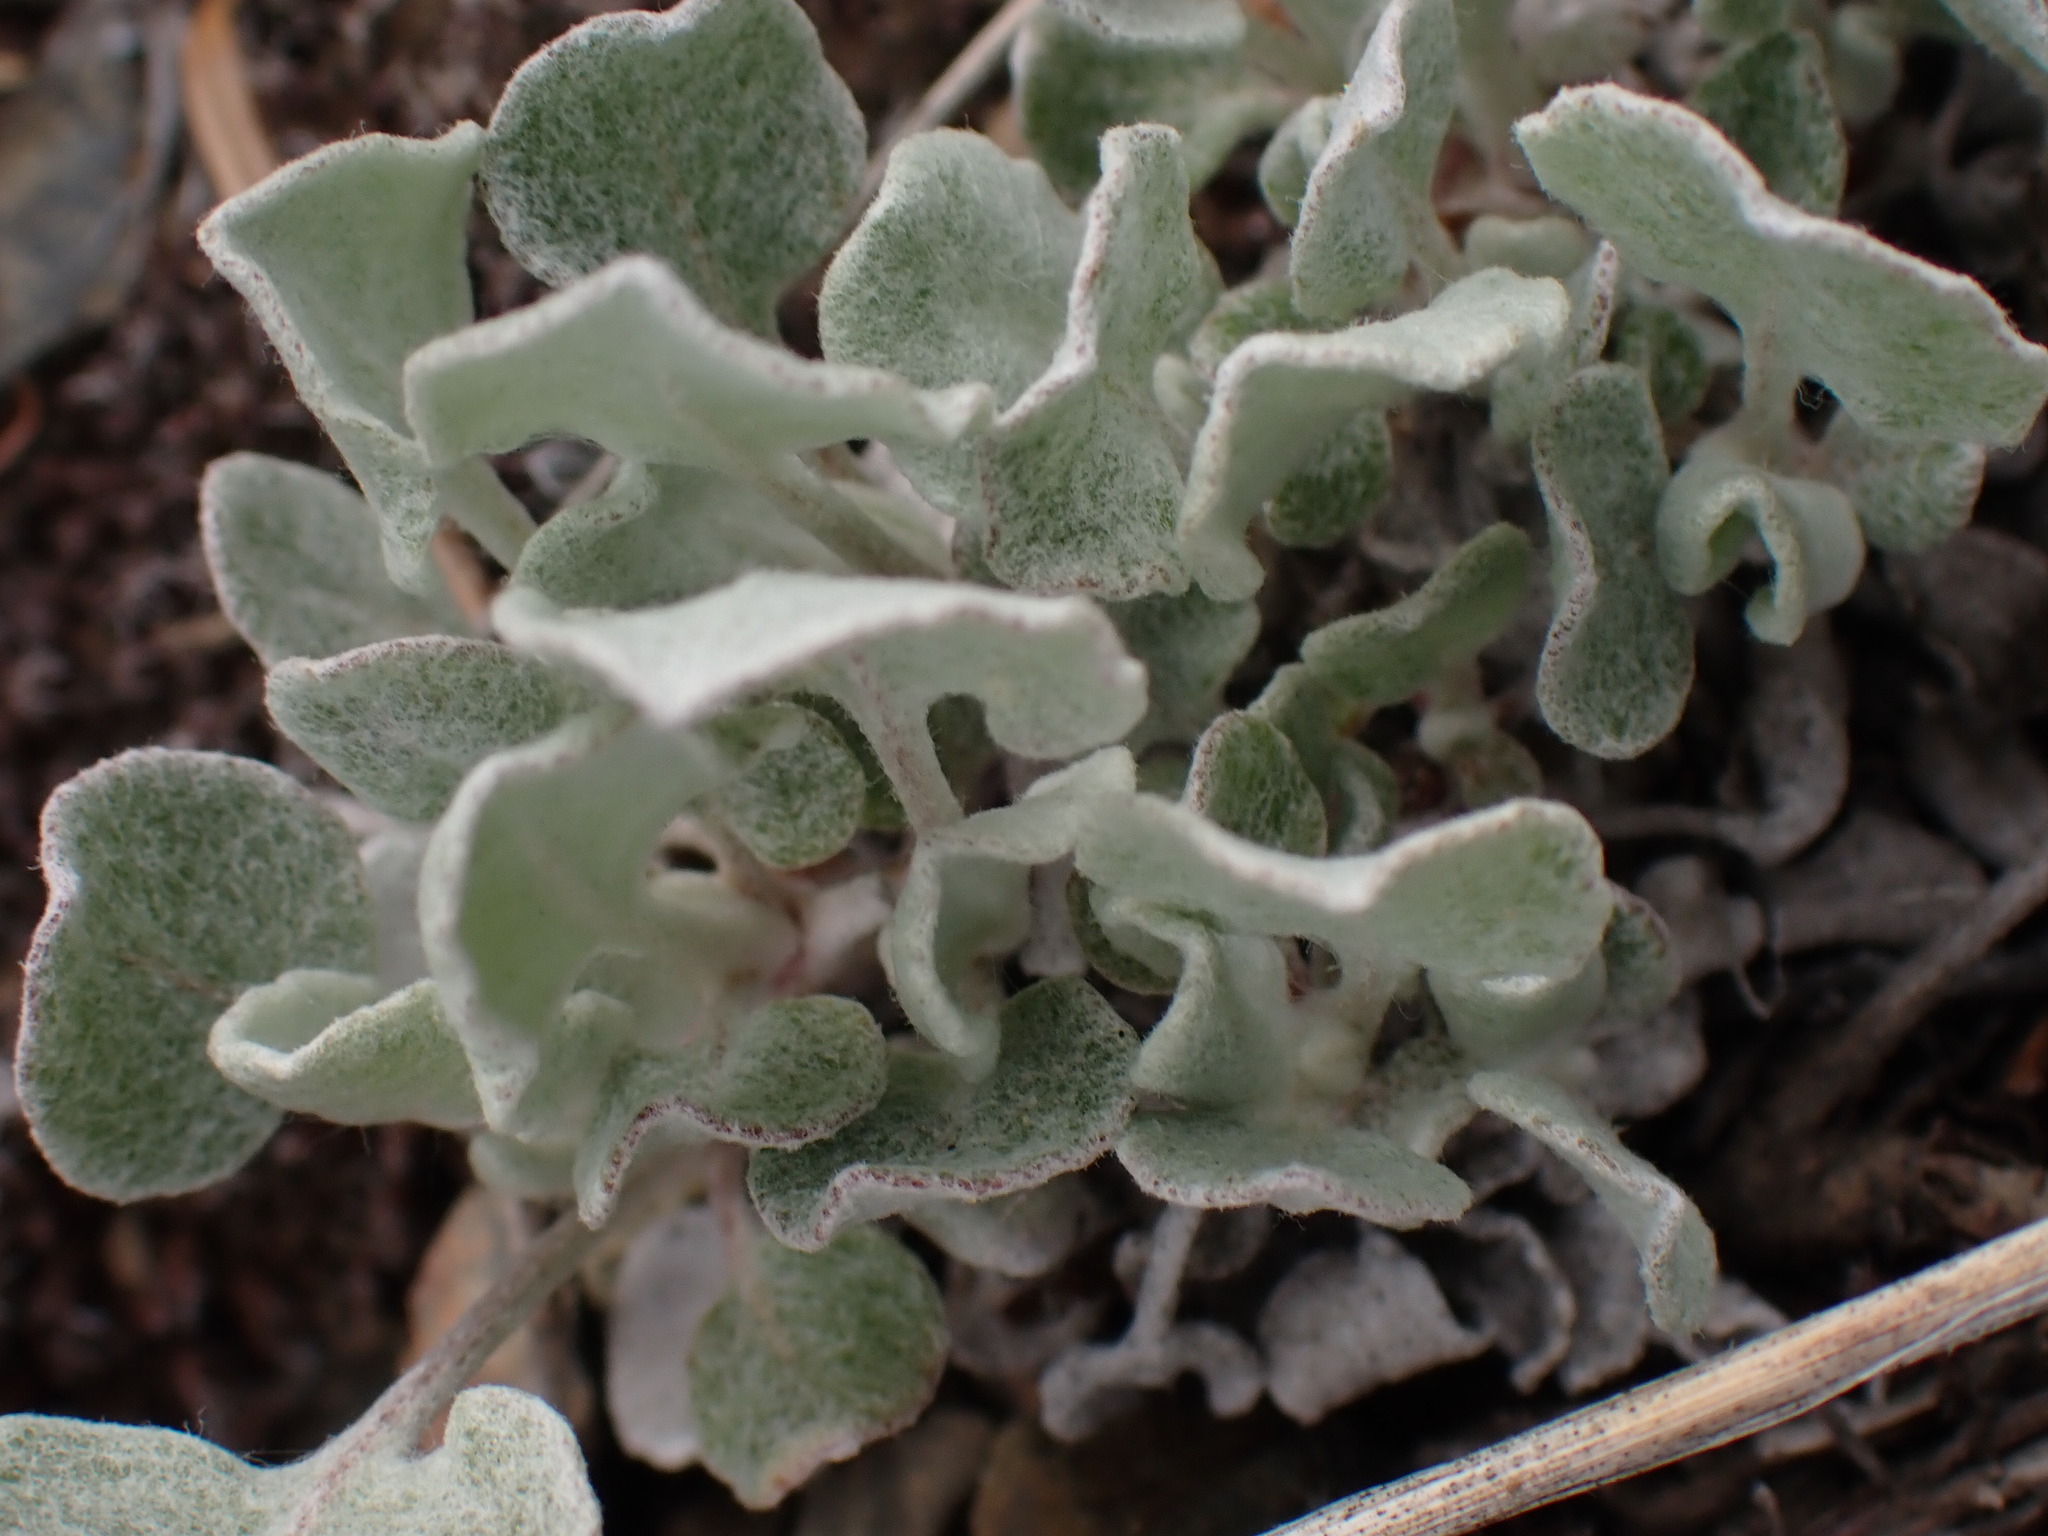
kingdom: Plantae
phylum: Tracheophyta
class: Magnoliopsida
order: Caryophyllales
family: Polygonaceae
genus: Eriogonum
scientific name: Eriogonum niveum
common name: Snow wild buckwheat
